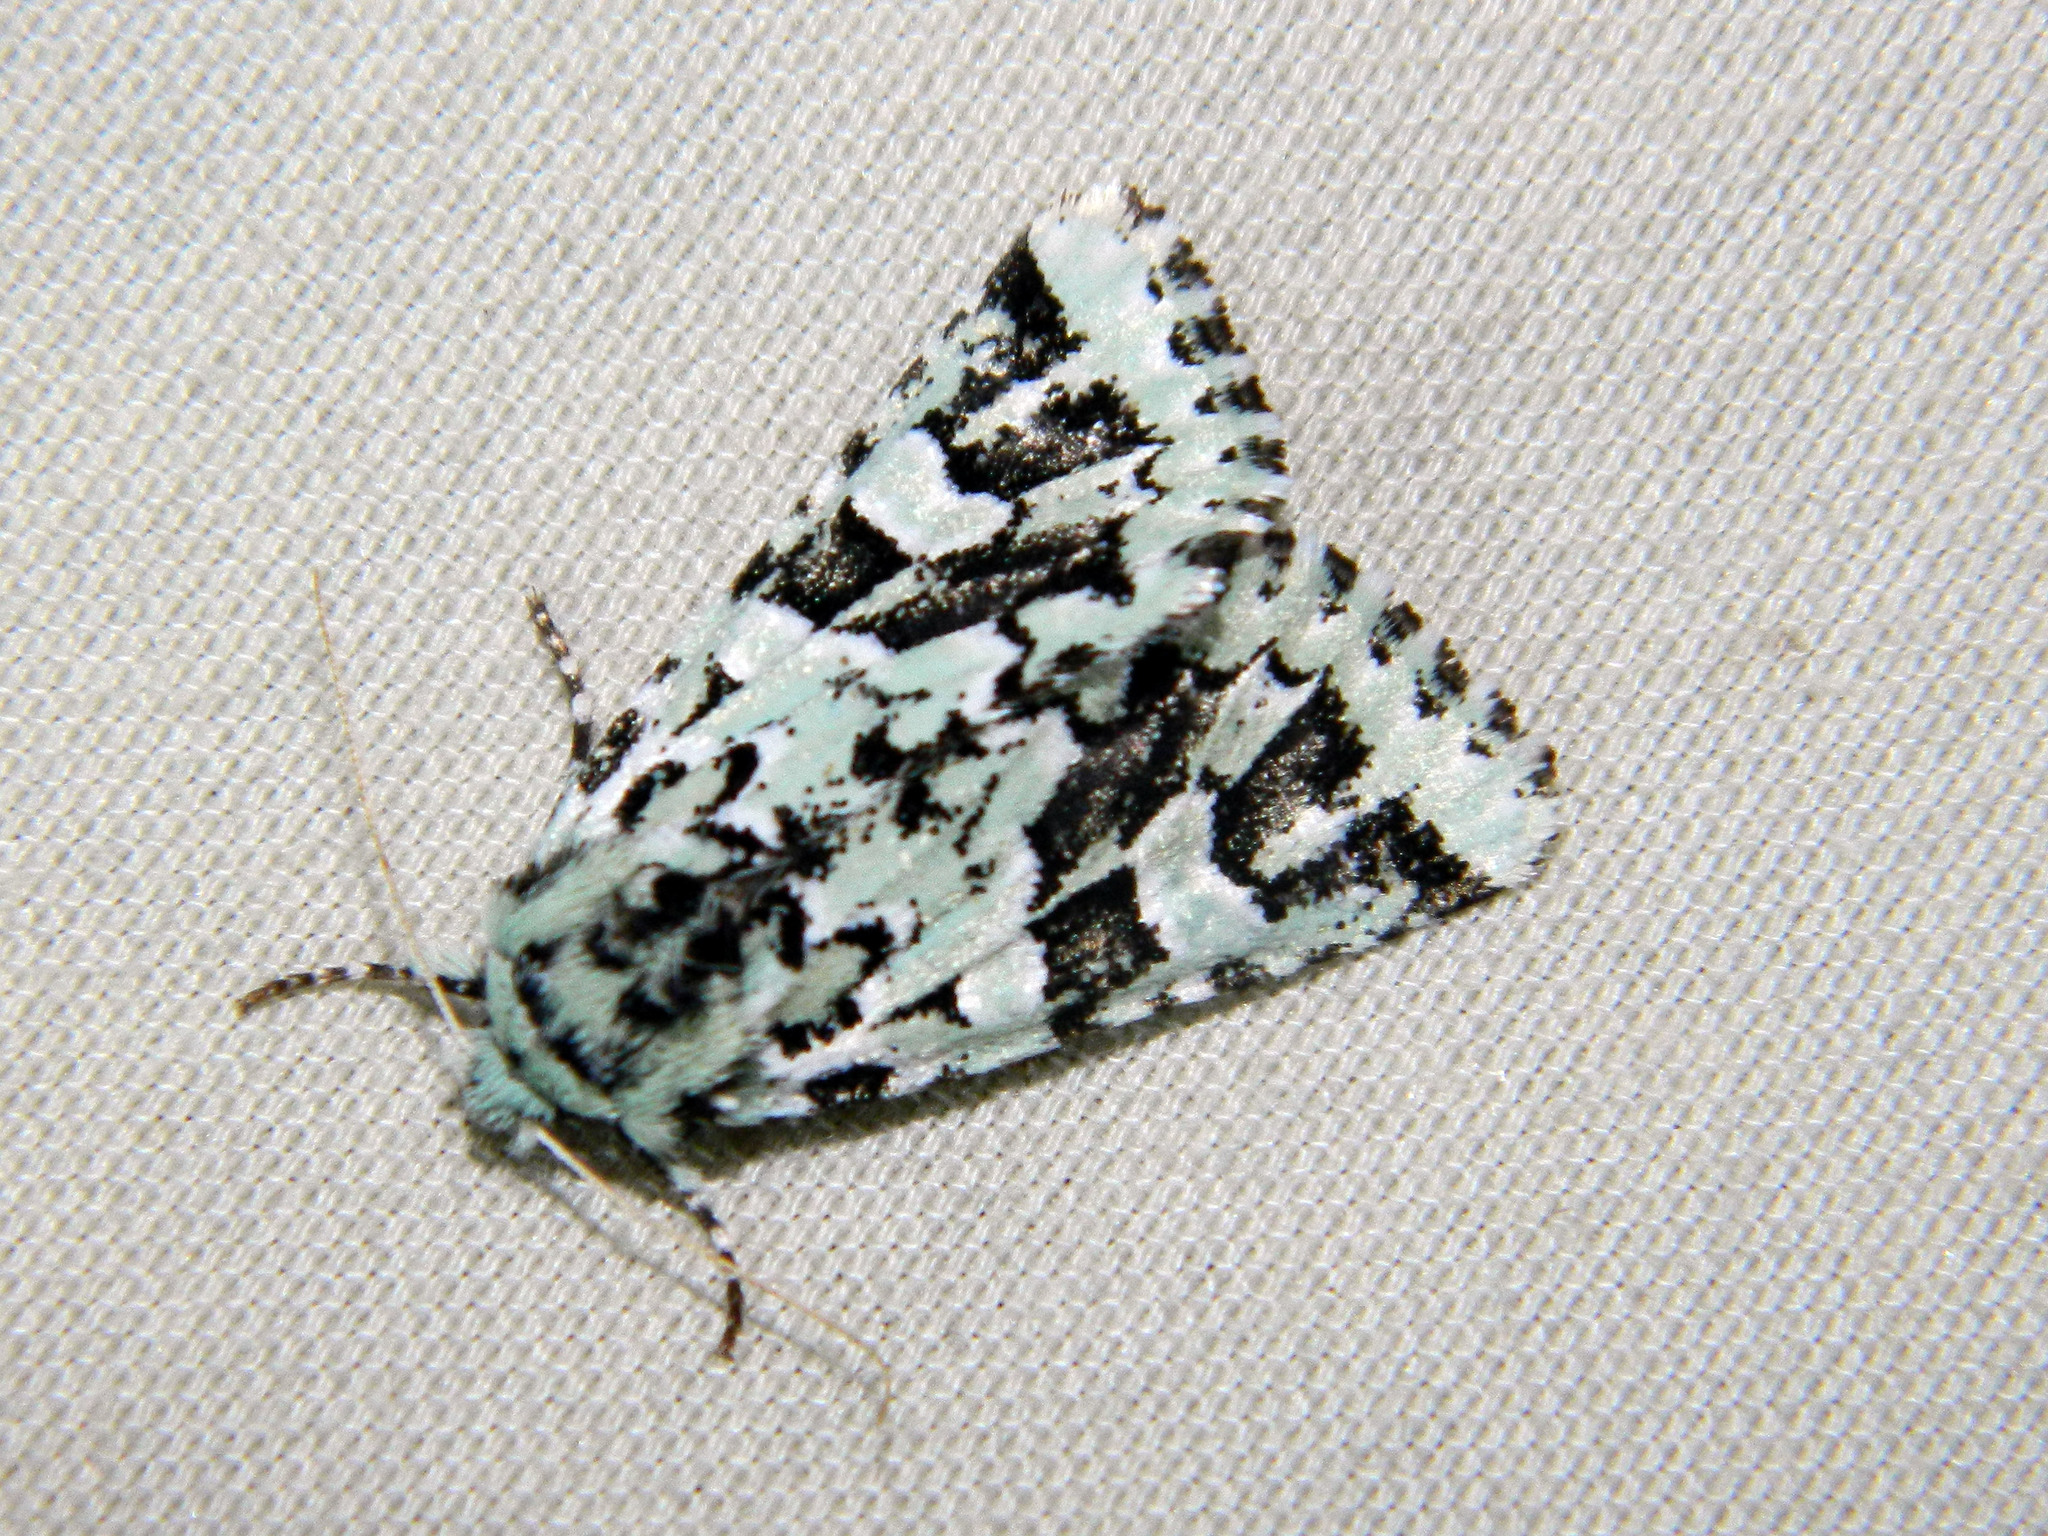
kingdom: Animalia
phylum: Arthropoda
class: Insecta
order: Lepidoptera
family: Noctuidae
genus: Feralia
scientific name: Feralia comstocki
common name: Comstock's sallow
